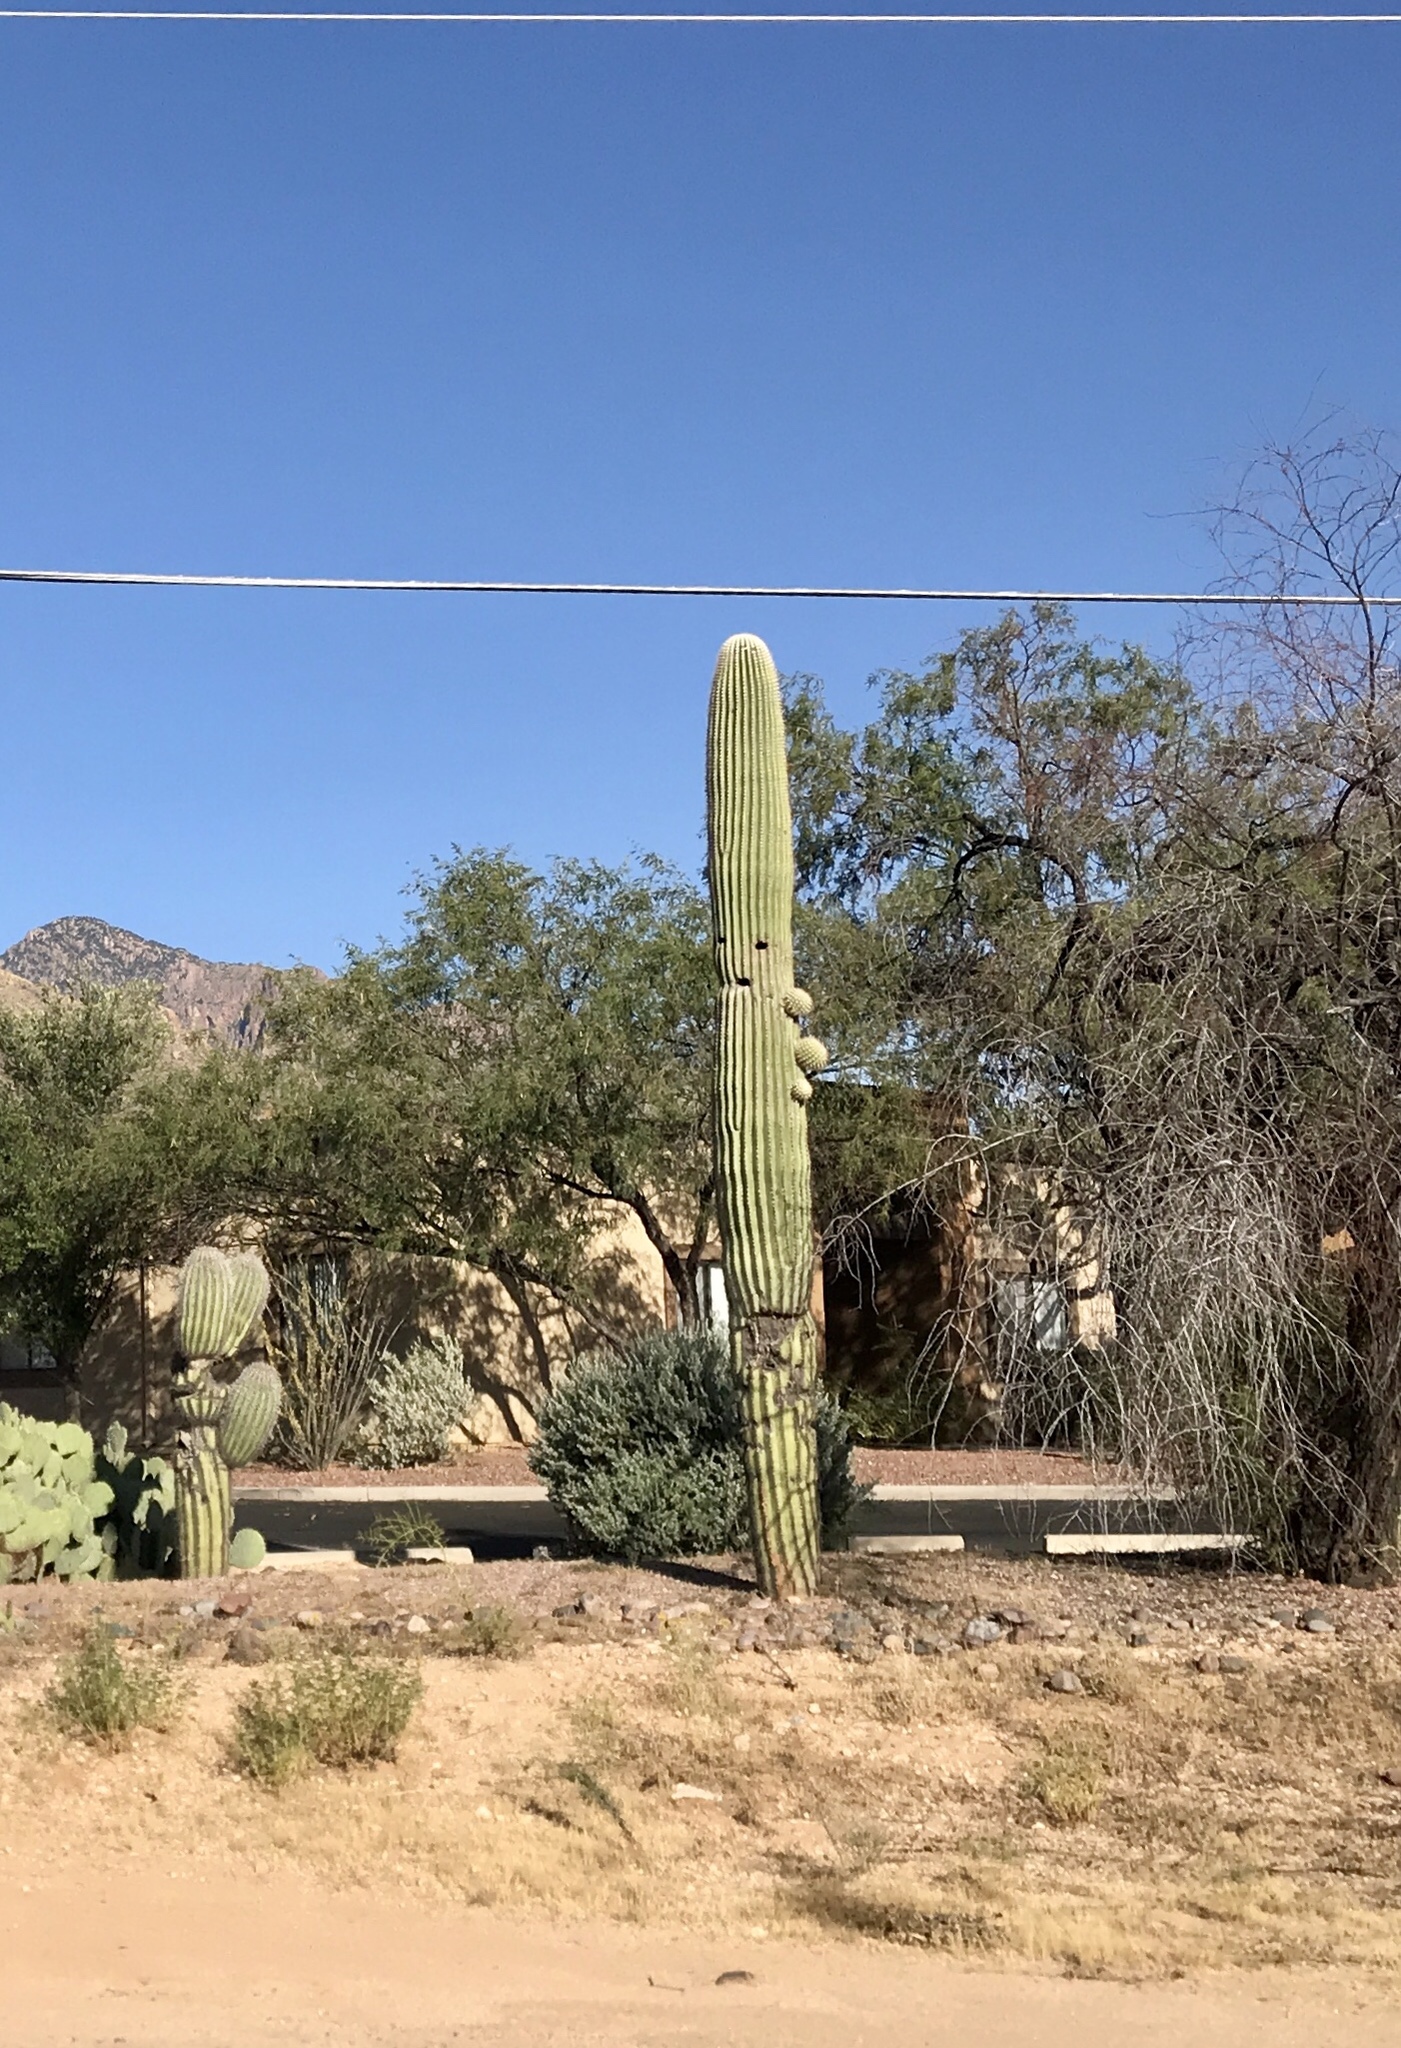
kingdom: Plantae
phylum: Tracheophyta
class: Magnoliopsida
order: Caryophyllales
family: Cactaceae
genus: Carnegiea
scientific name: Carnegiea gigantea
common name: Saguaro
